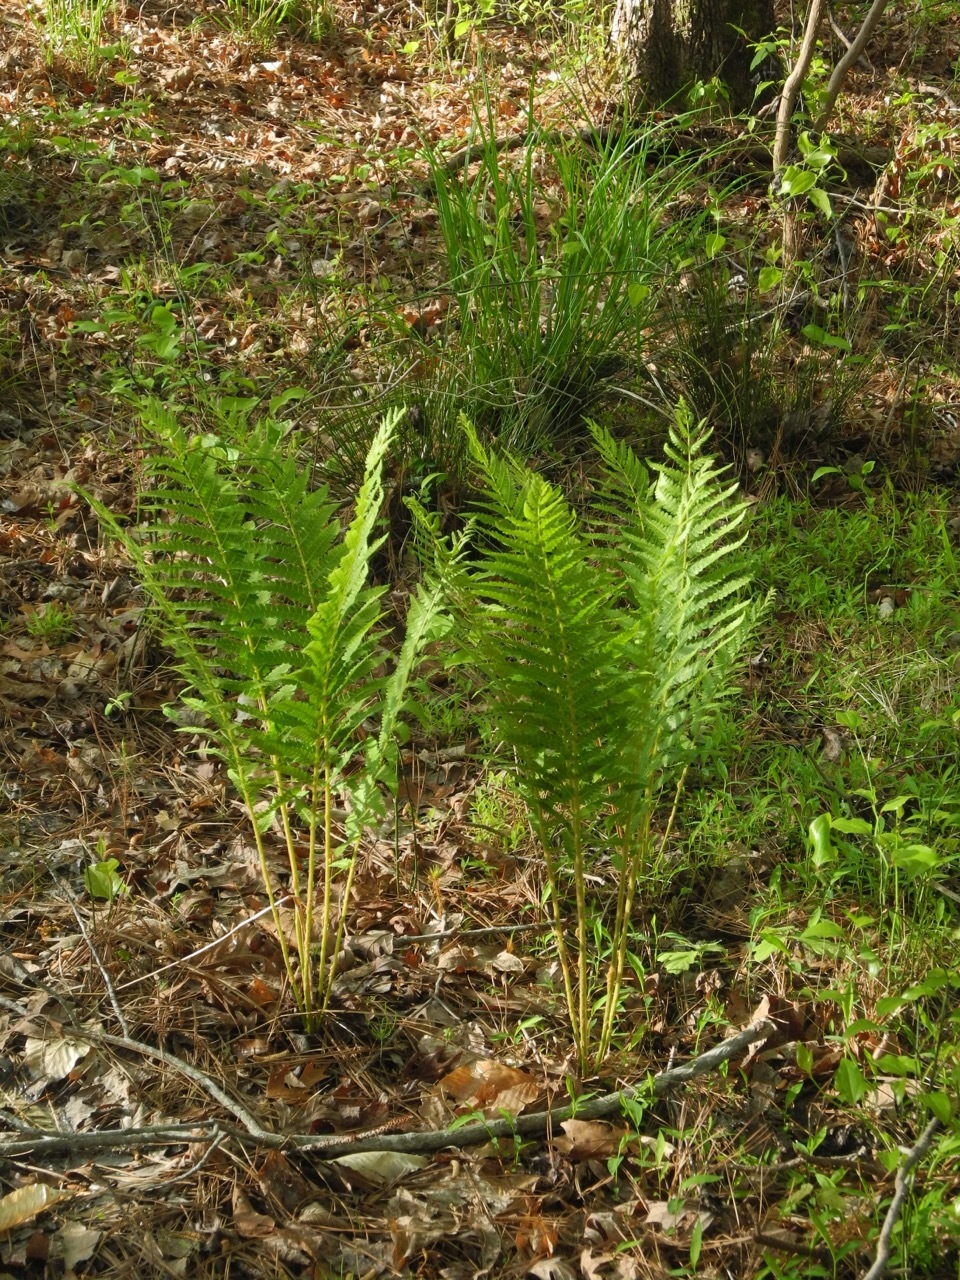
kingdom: Plantae
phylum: Tracheophyta
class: Polypodiopsida
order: Osmundales
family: Osmundaceae
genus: Osmundastrum
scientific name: Osmundastrum cinnamomeum
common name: Cinnamon fern
